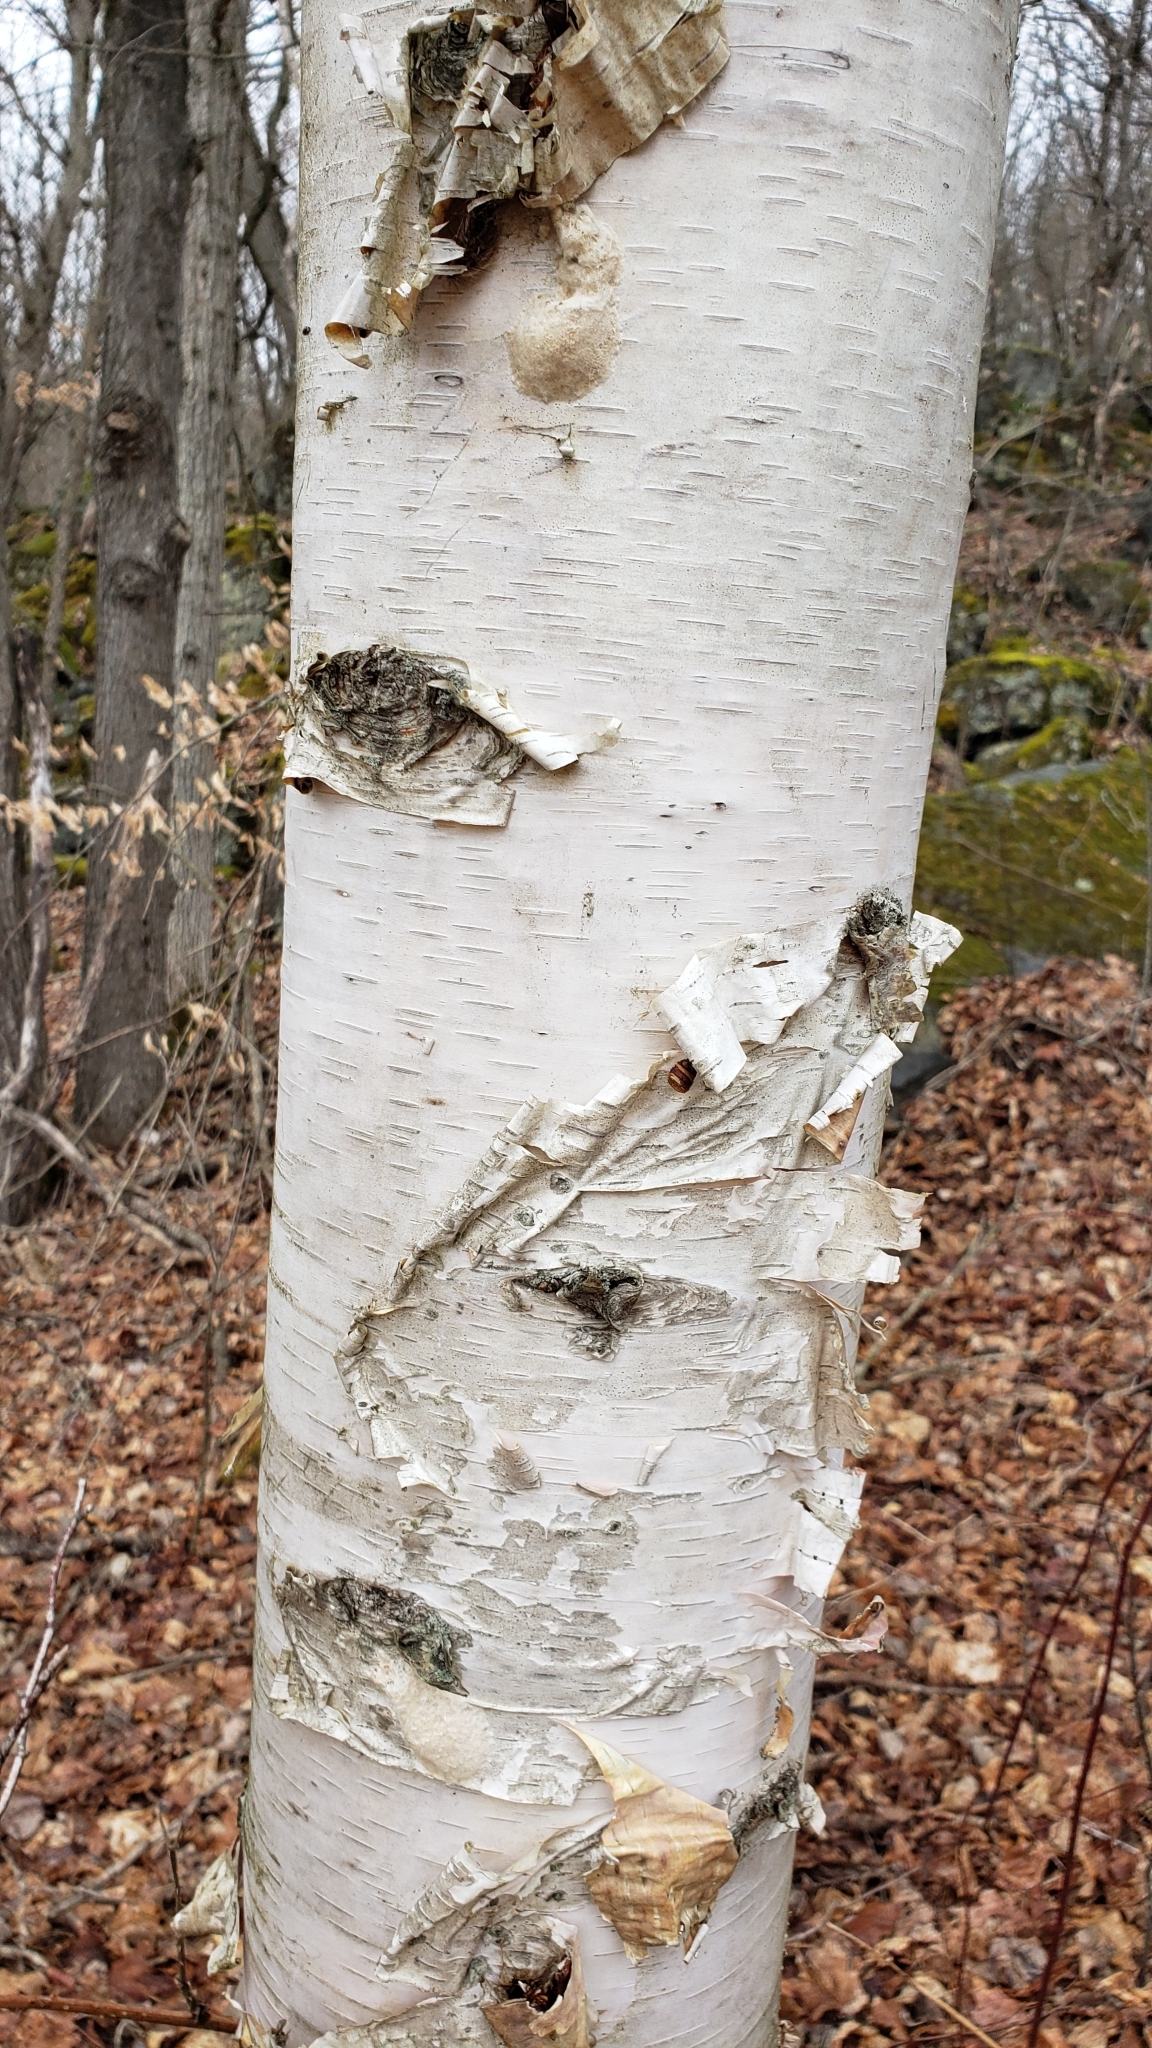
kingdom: Animalia
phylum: Arthropoda
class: Insecta
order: Lepidoptera
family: Erebidae
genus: Lymantria
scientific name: Lymantria dispar
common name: Gypsy moth
